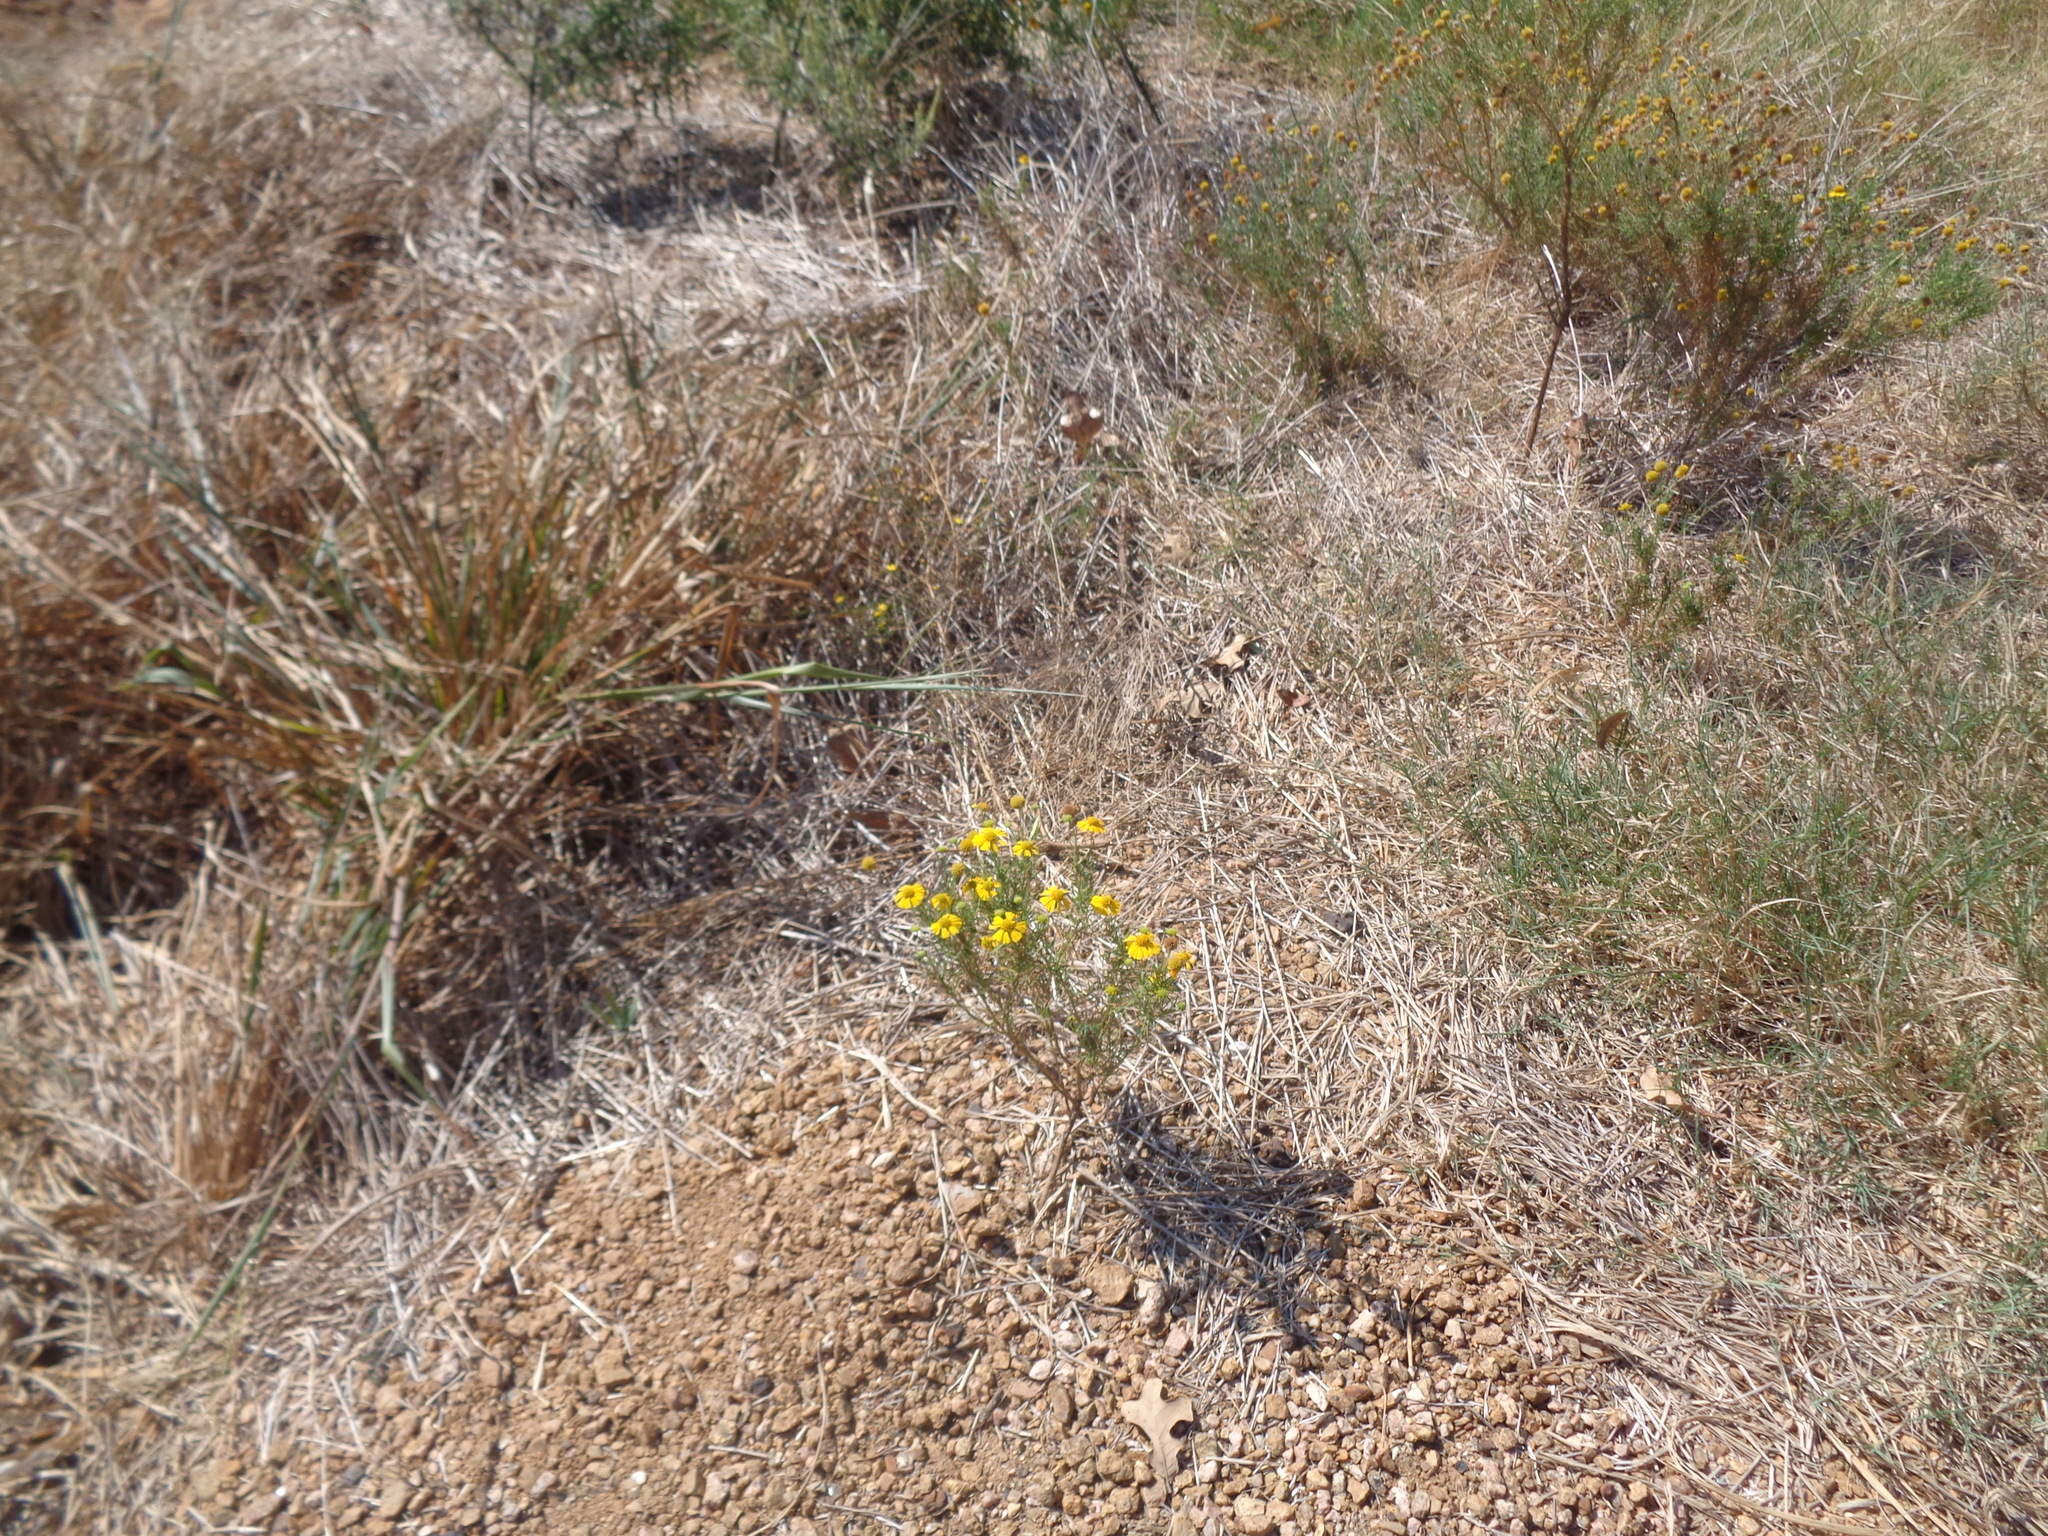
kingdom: Plantae
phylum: Tracheophyta
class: Magnoliopsida
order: Asterales
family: Asteraceae
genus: Helenium
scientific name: Helenium amarum
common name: Bitter sneezeweed
